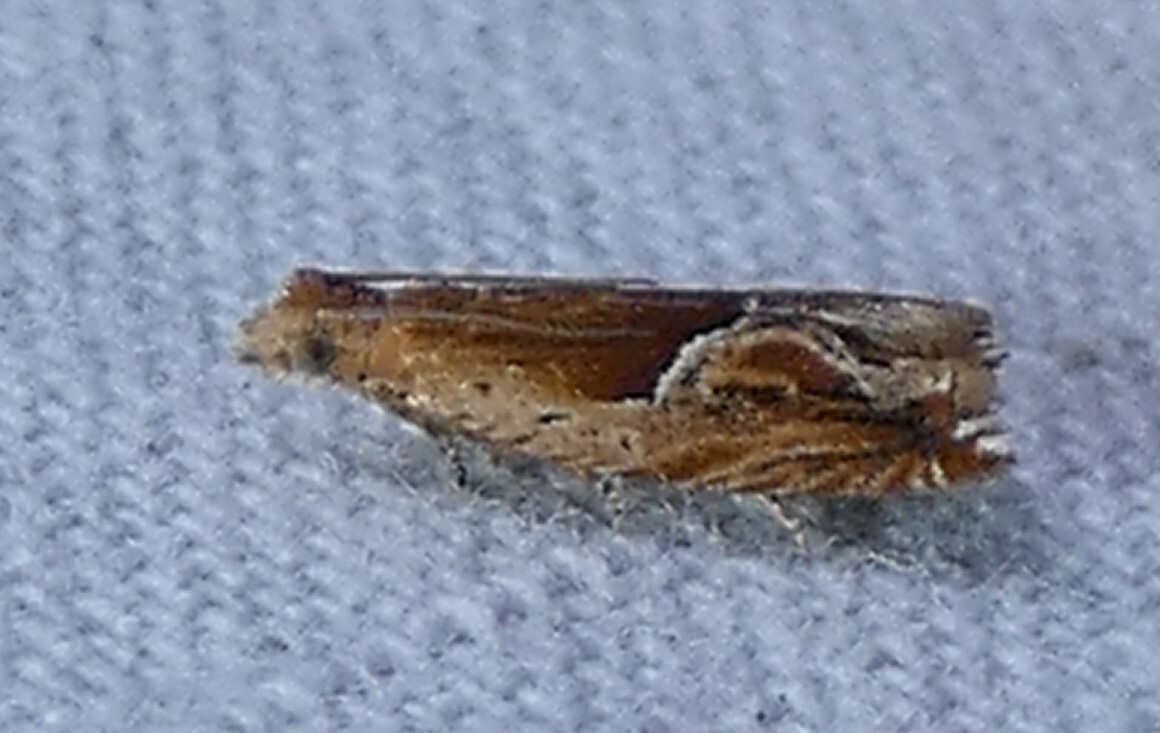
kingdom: Animalia
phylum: Arthropoda
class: Insecta
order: Lepidoptera
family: Tortricidae
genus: Ancylis
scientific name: Ancylis comptana
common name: Little roller
